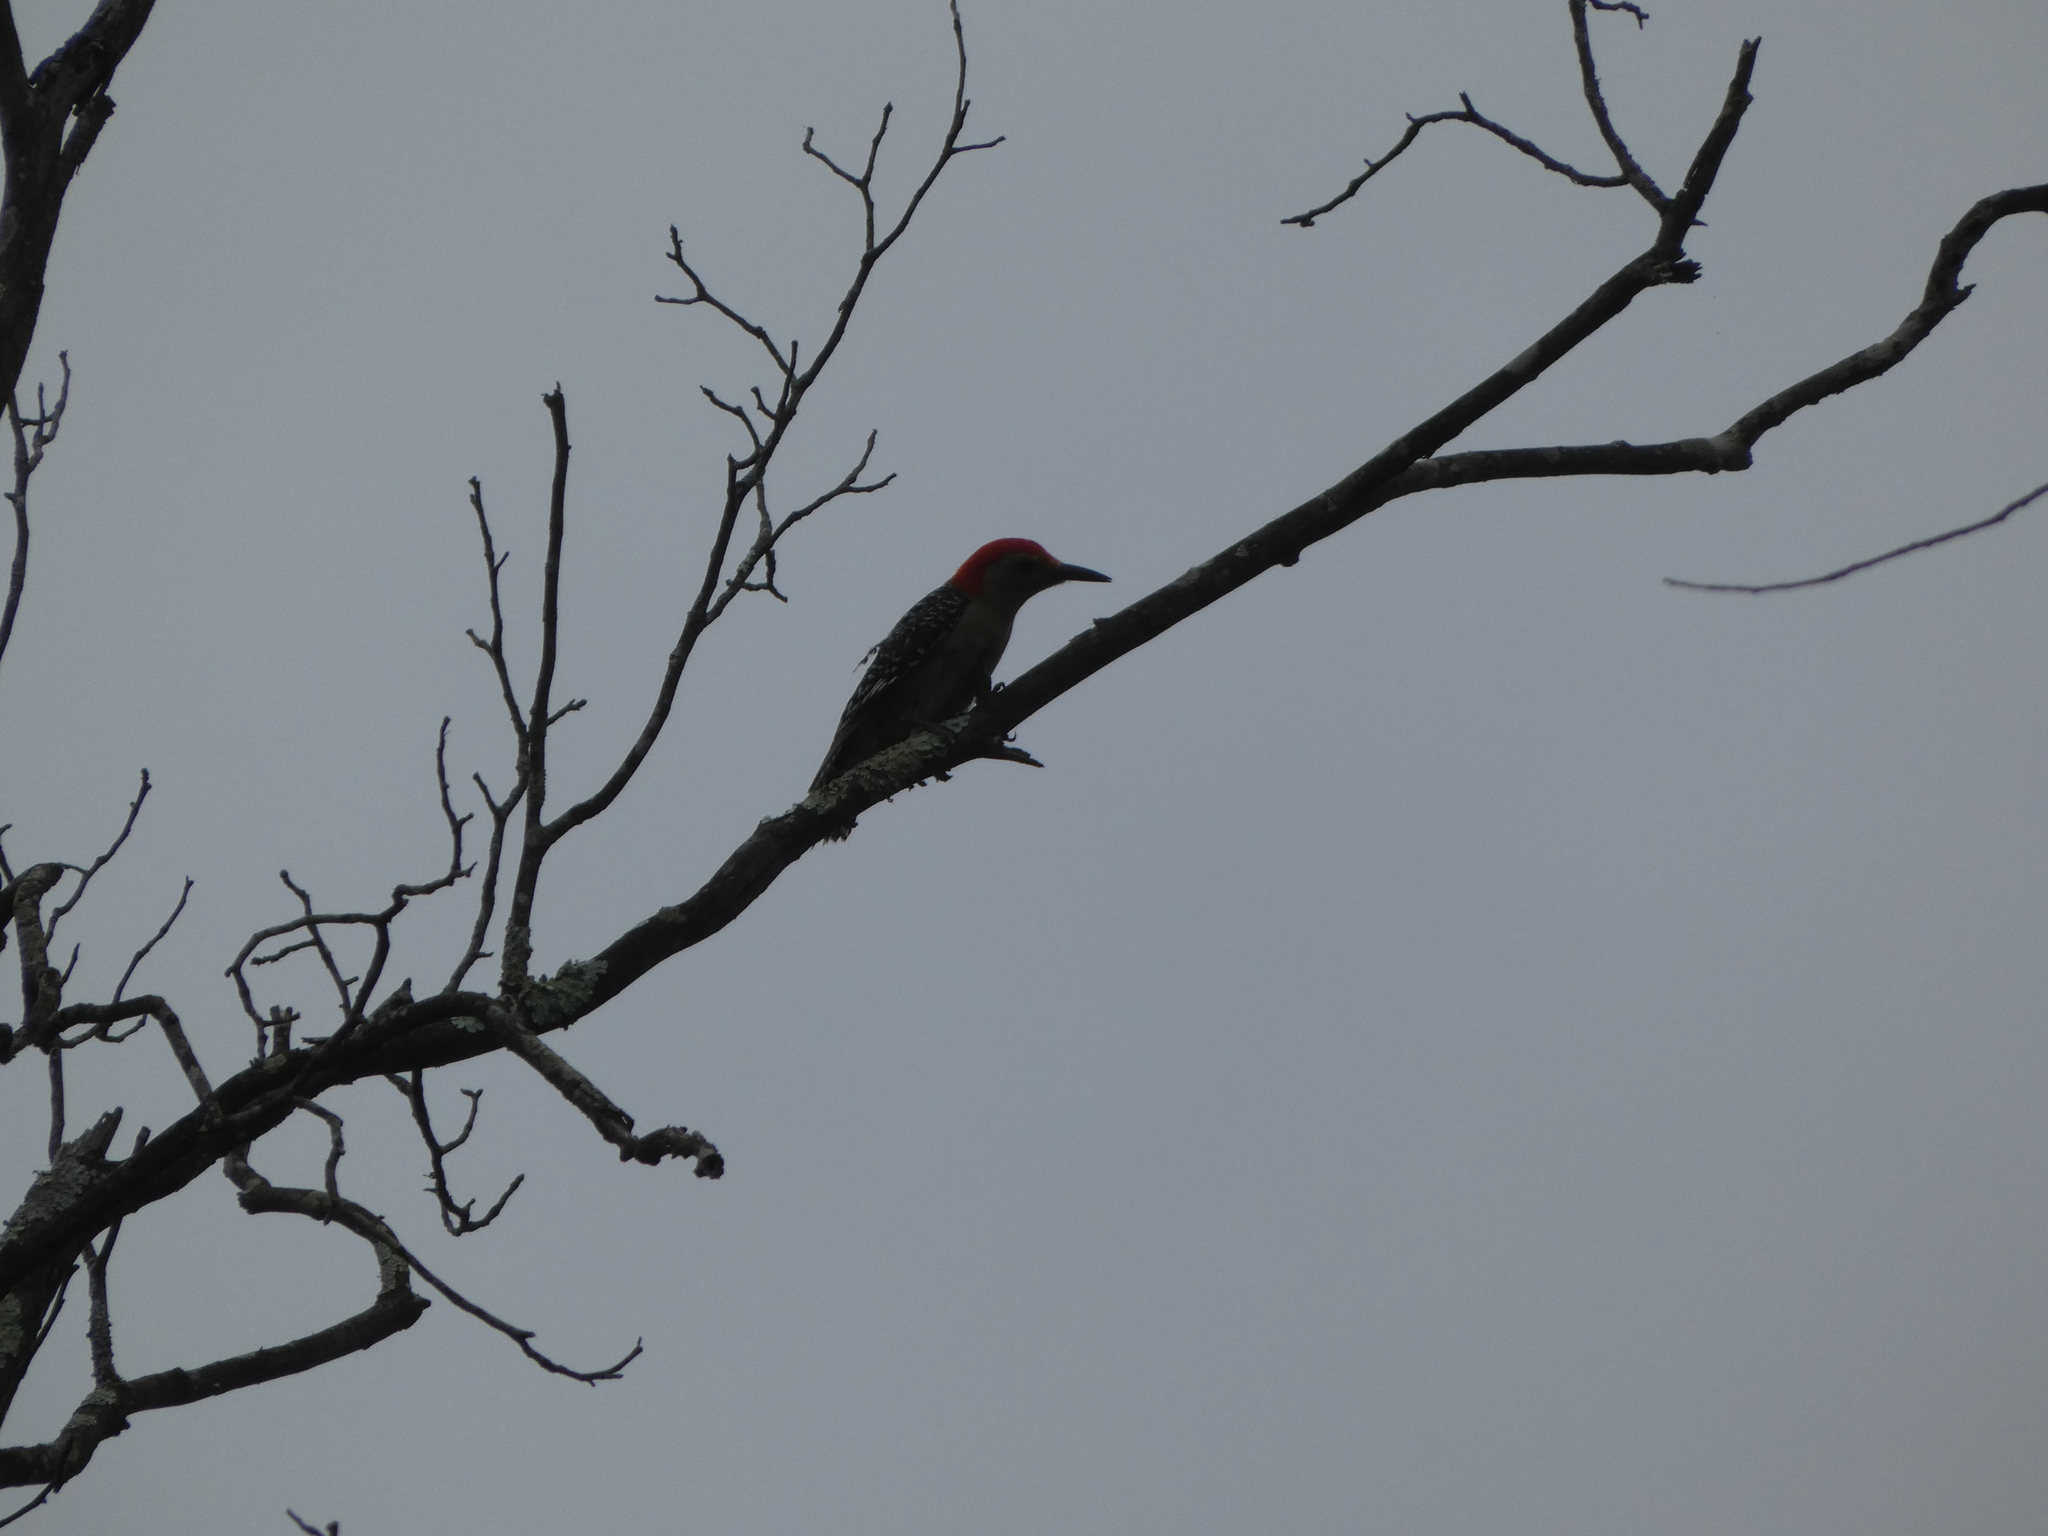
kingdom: Animalia
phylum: Chordata
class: Aves
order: Piciformes
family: Picidae
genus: Melanerpes
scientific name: Melanerpes carolinus
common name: Red-bellied woodpecker
